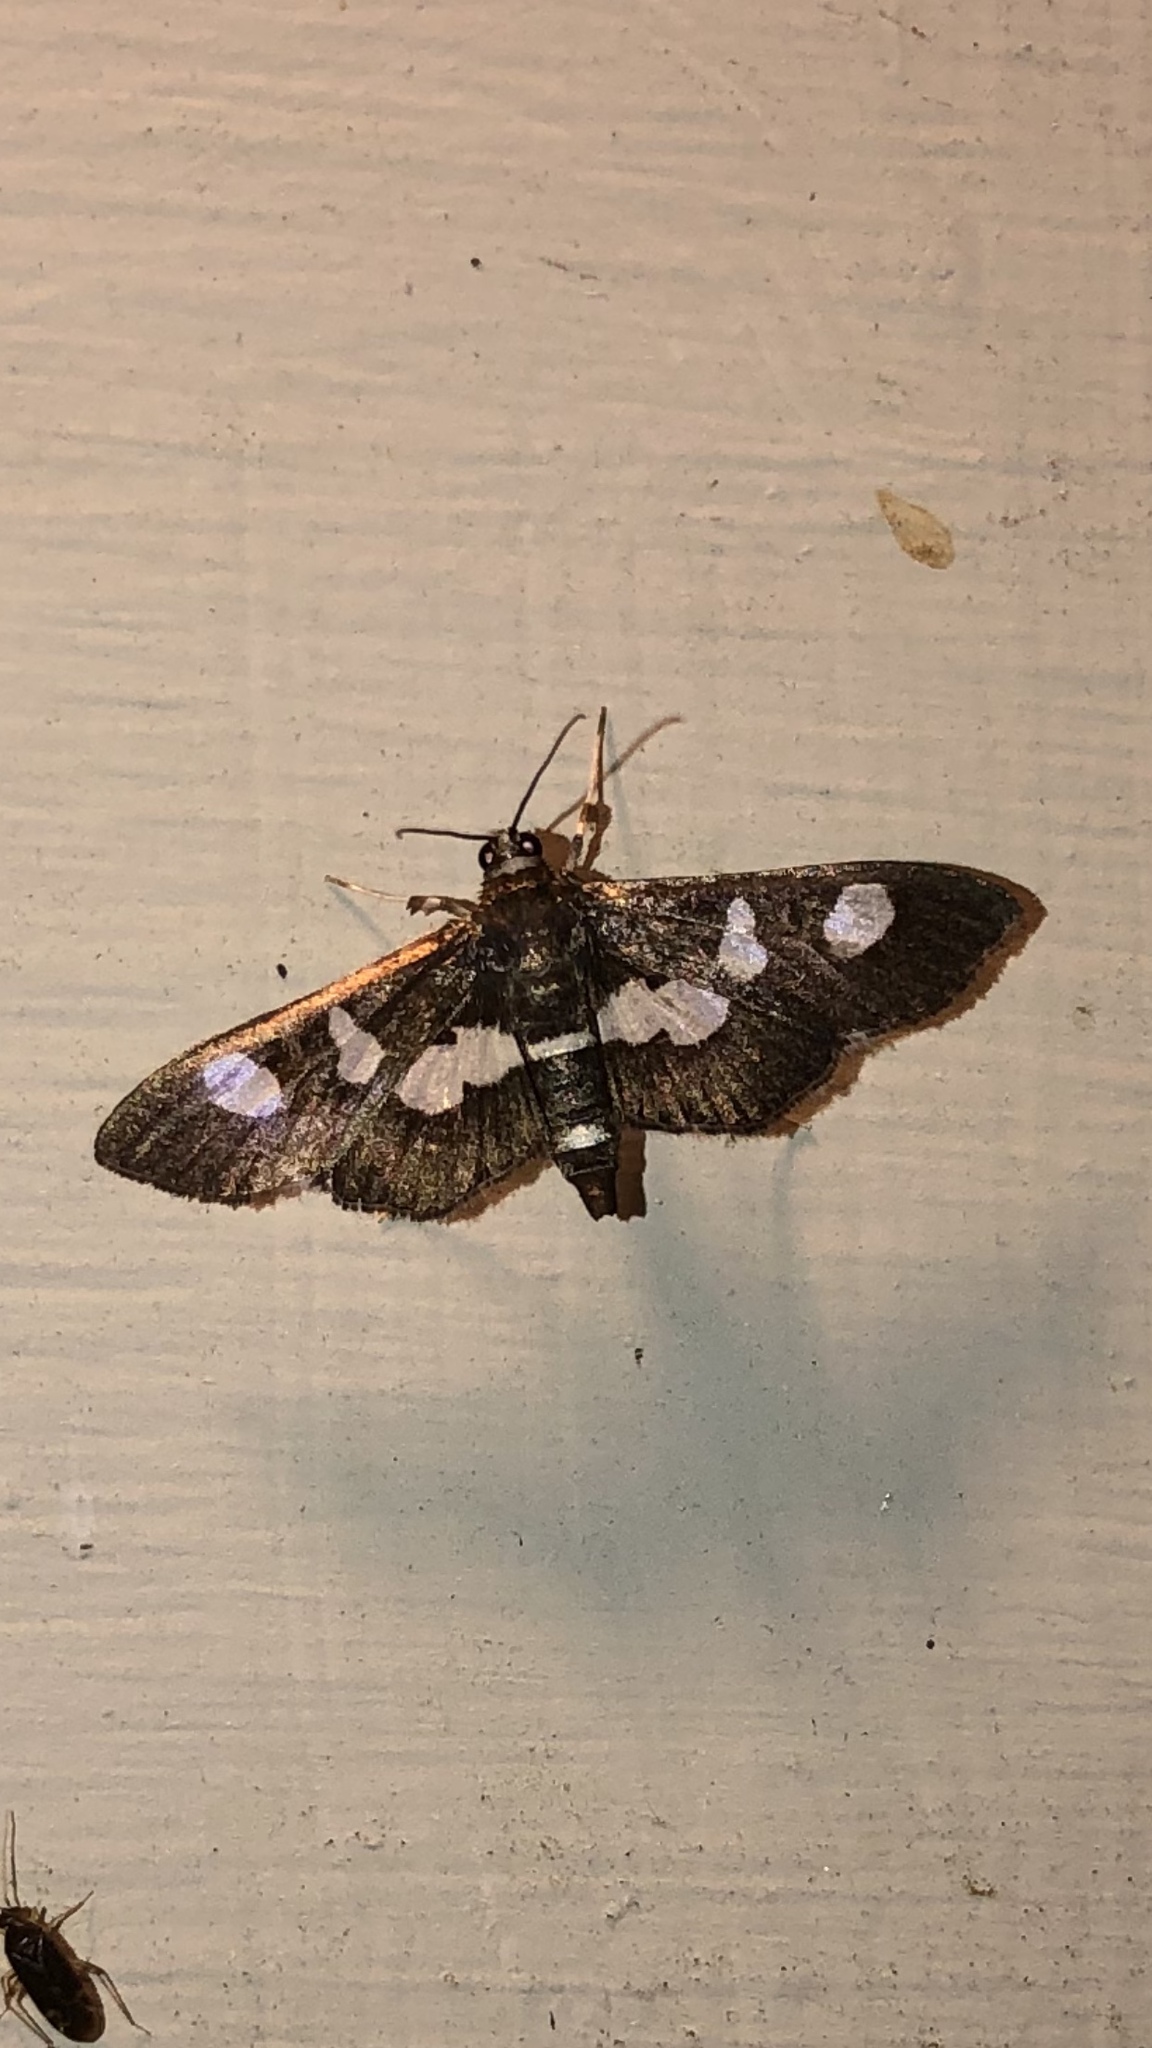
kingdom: Animalia
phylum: Arthropoda
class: Insecta
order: Lepidoptera
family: Crambidae
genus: Desmia
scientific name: Desmia
